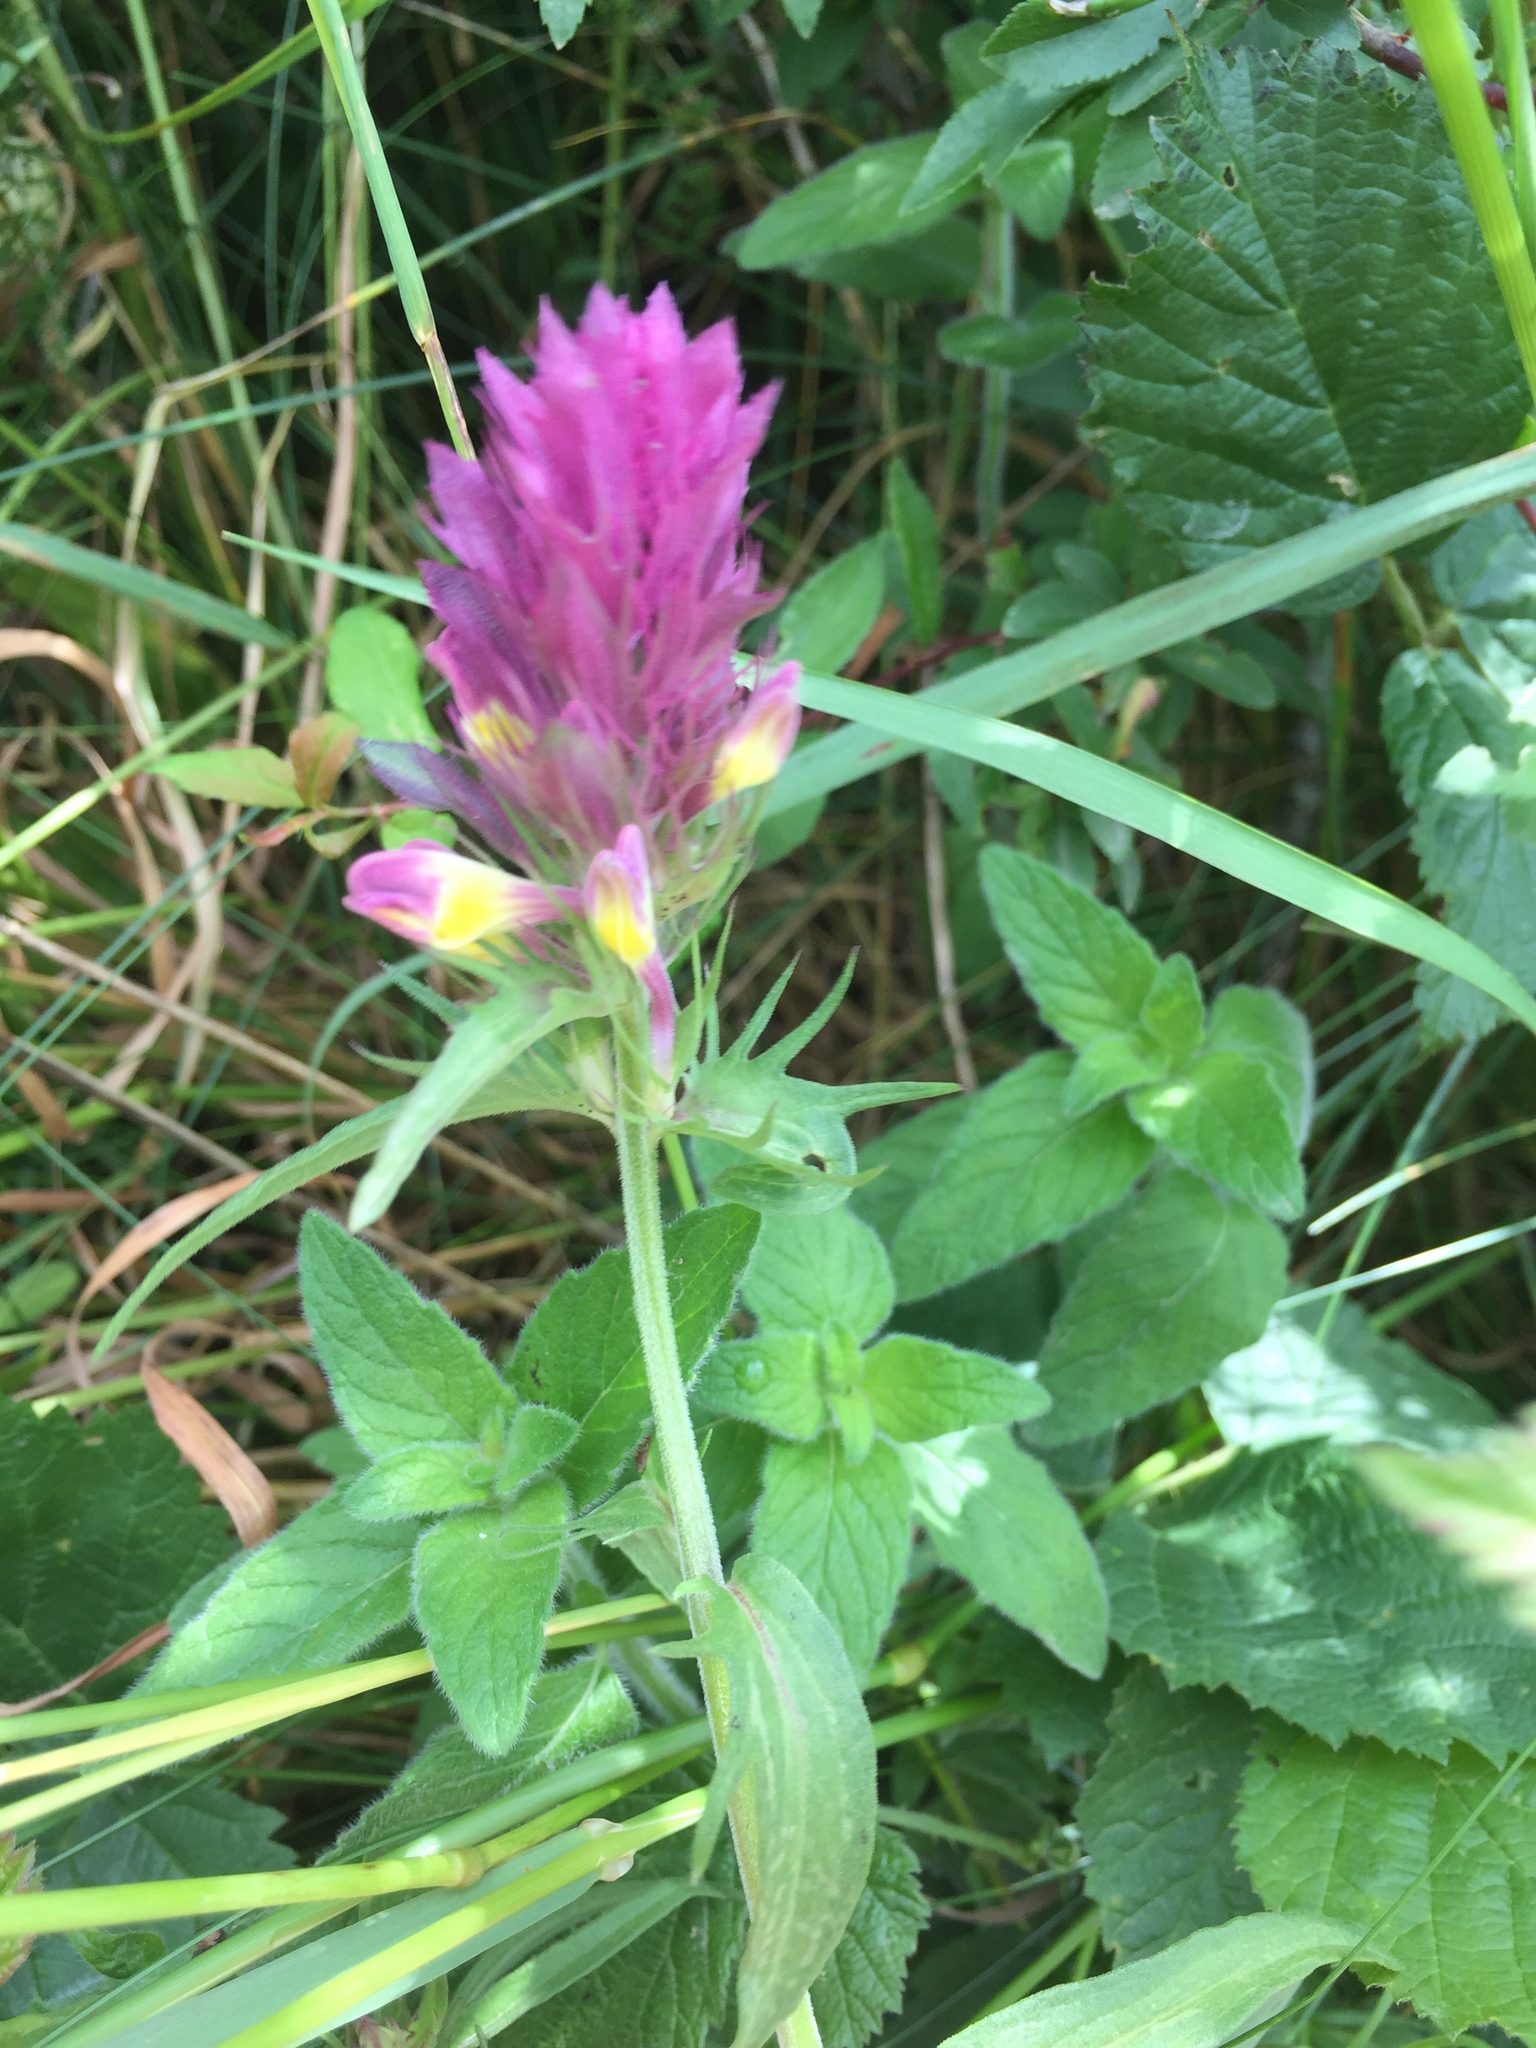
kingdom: Plantae
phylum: Tracheophyta
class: Magnoliopsida
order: Lamiales
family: Orobanchaceae
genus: Melampyrum
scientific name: Melampyrum arvense
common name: Field cow-wheat
